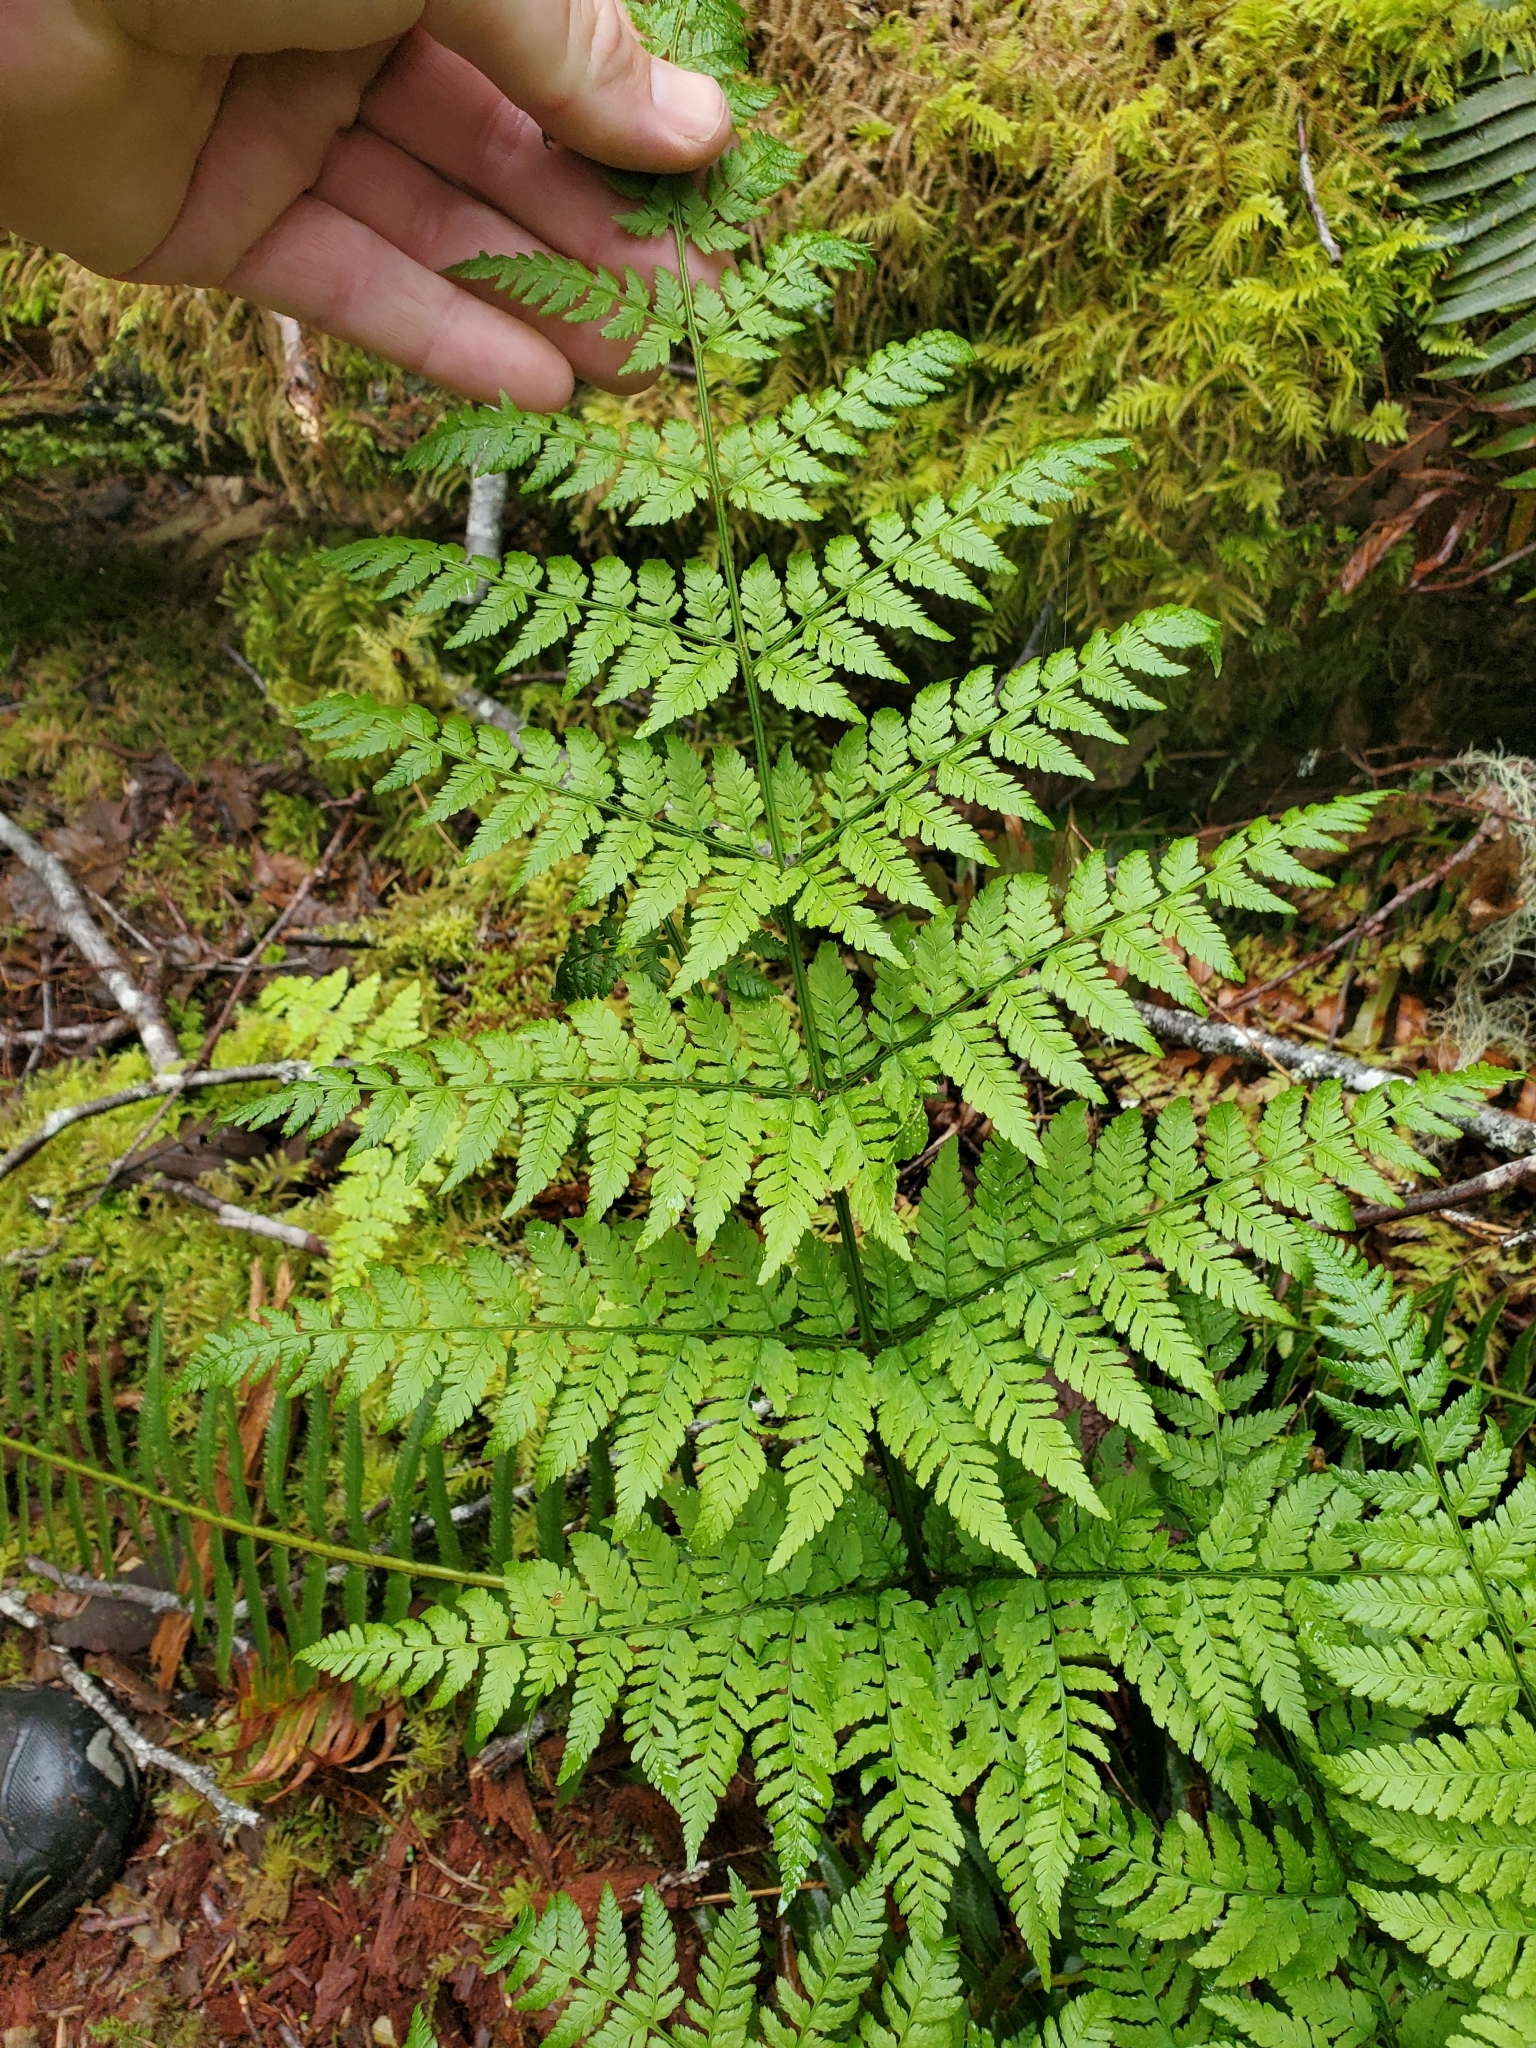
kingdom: Plantae
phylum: Tracheophyta
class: Polypodiopsida
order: Polypodiales
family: Dryopteridaceae
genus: Dryopteris
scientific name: Dryopteris expansa
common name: Northern buckler fern
